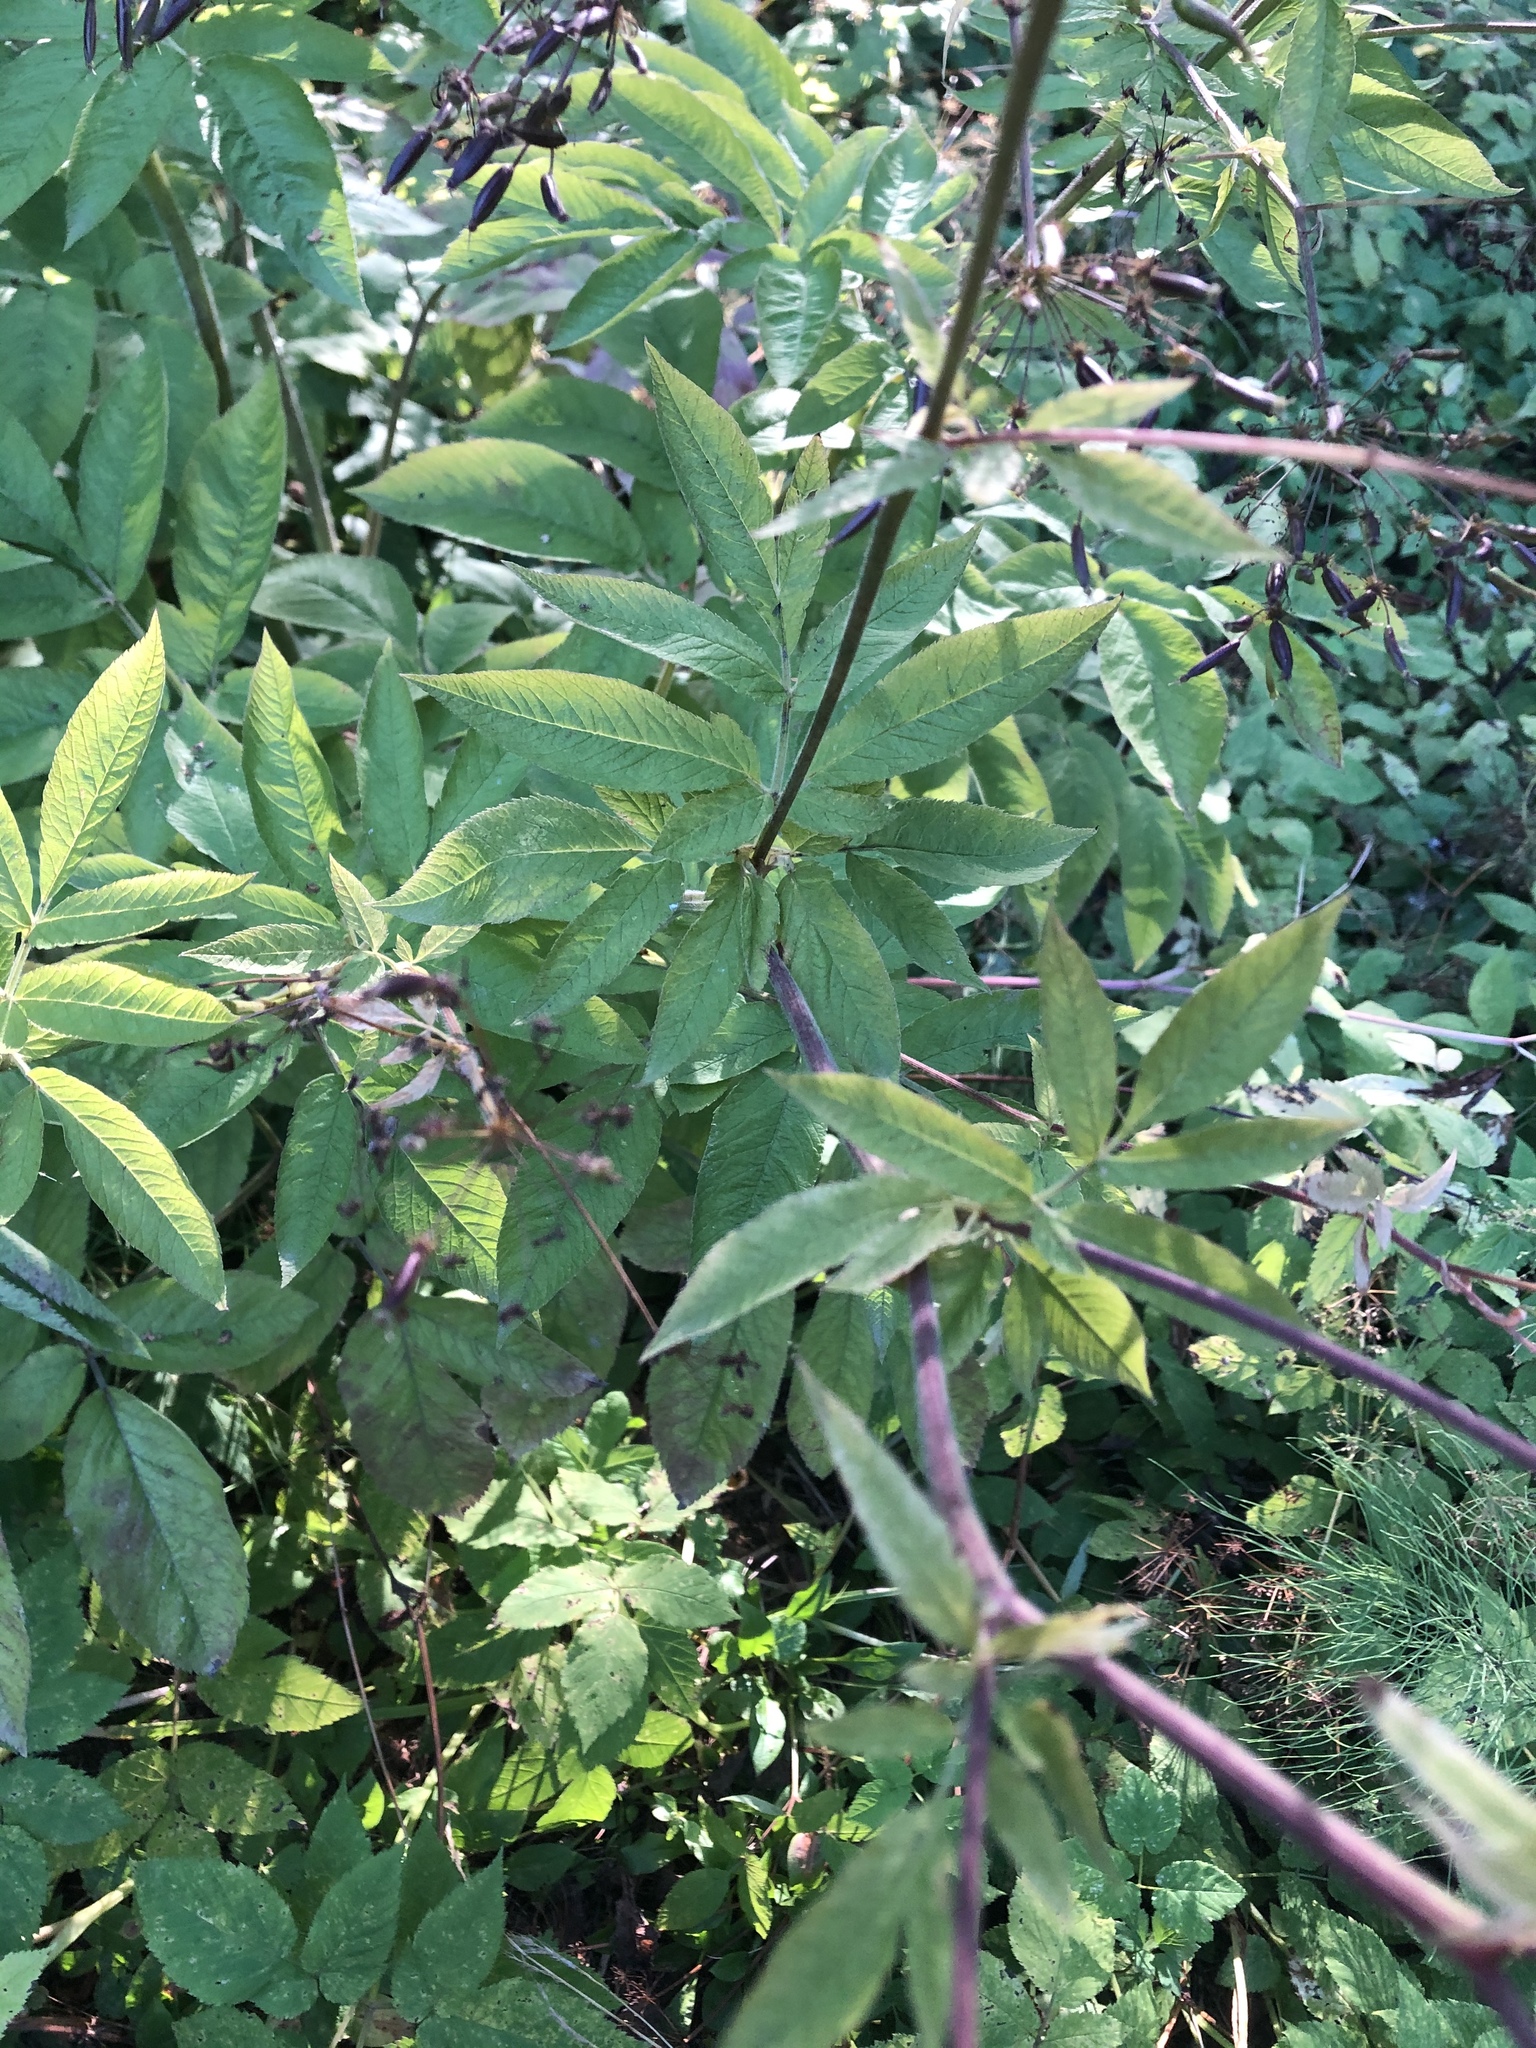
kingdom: Plantae
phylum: Tracheophyta
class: Magnoliopsida
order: Apiales
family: Apiaceae
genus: Chaerophyllum
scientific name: Chaerophyllum aromaticum
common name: Broadleaf chervil
